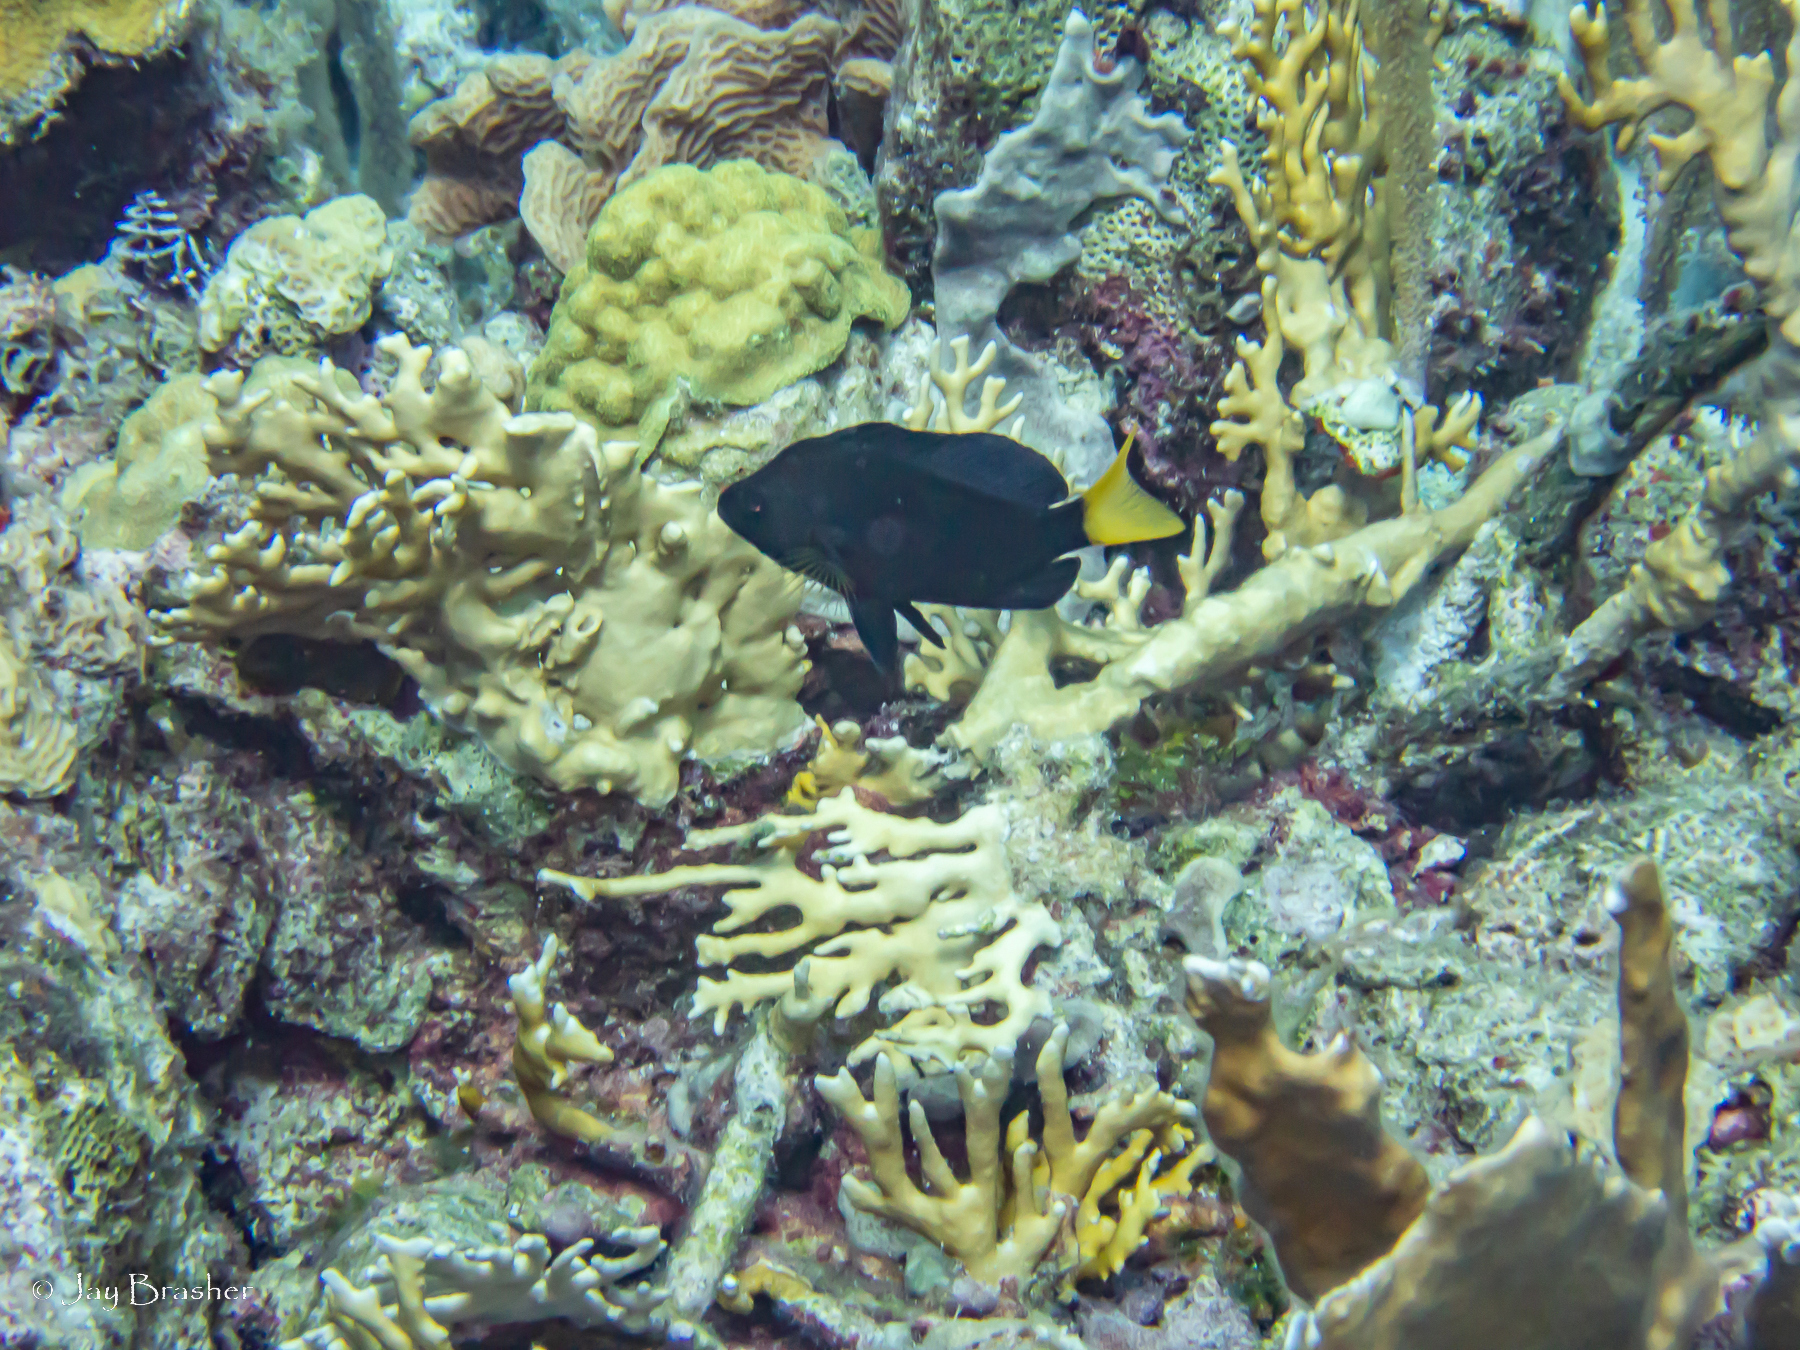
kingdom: Animalia
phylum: Cnidaria
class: Anthozoa
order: Scleractinia
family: Poritidae
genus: Porites
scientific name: Porites astreoides
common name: Mustard hill coral
